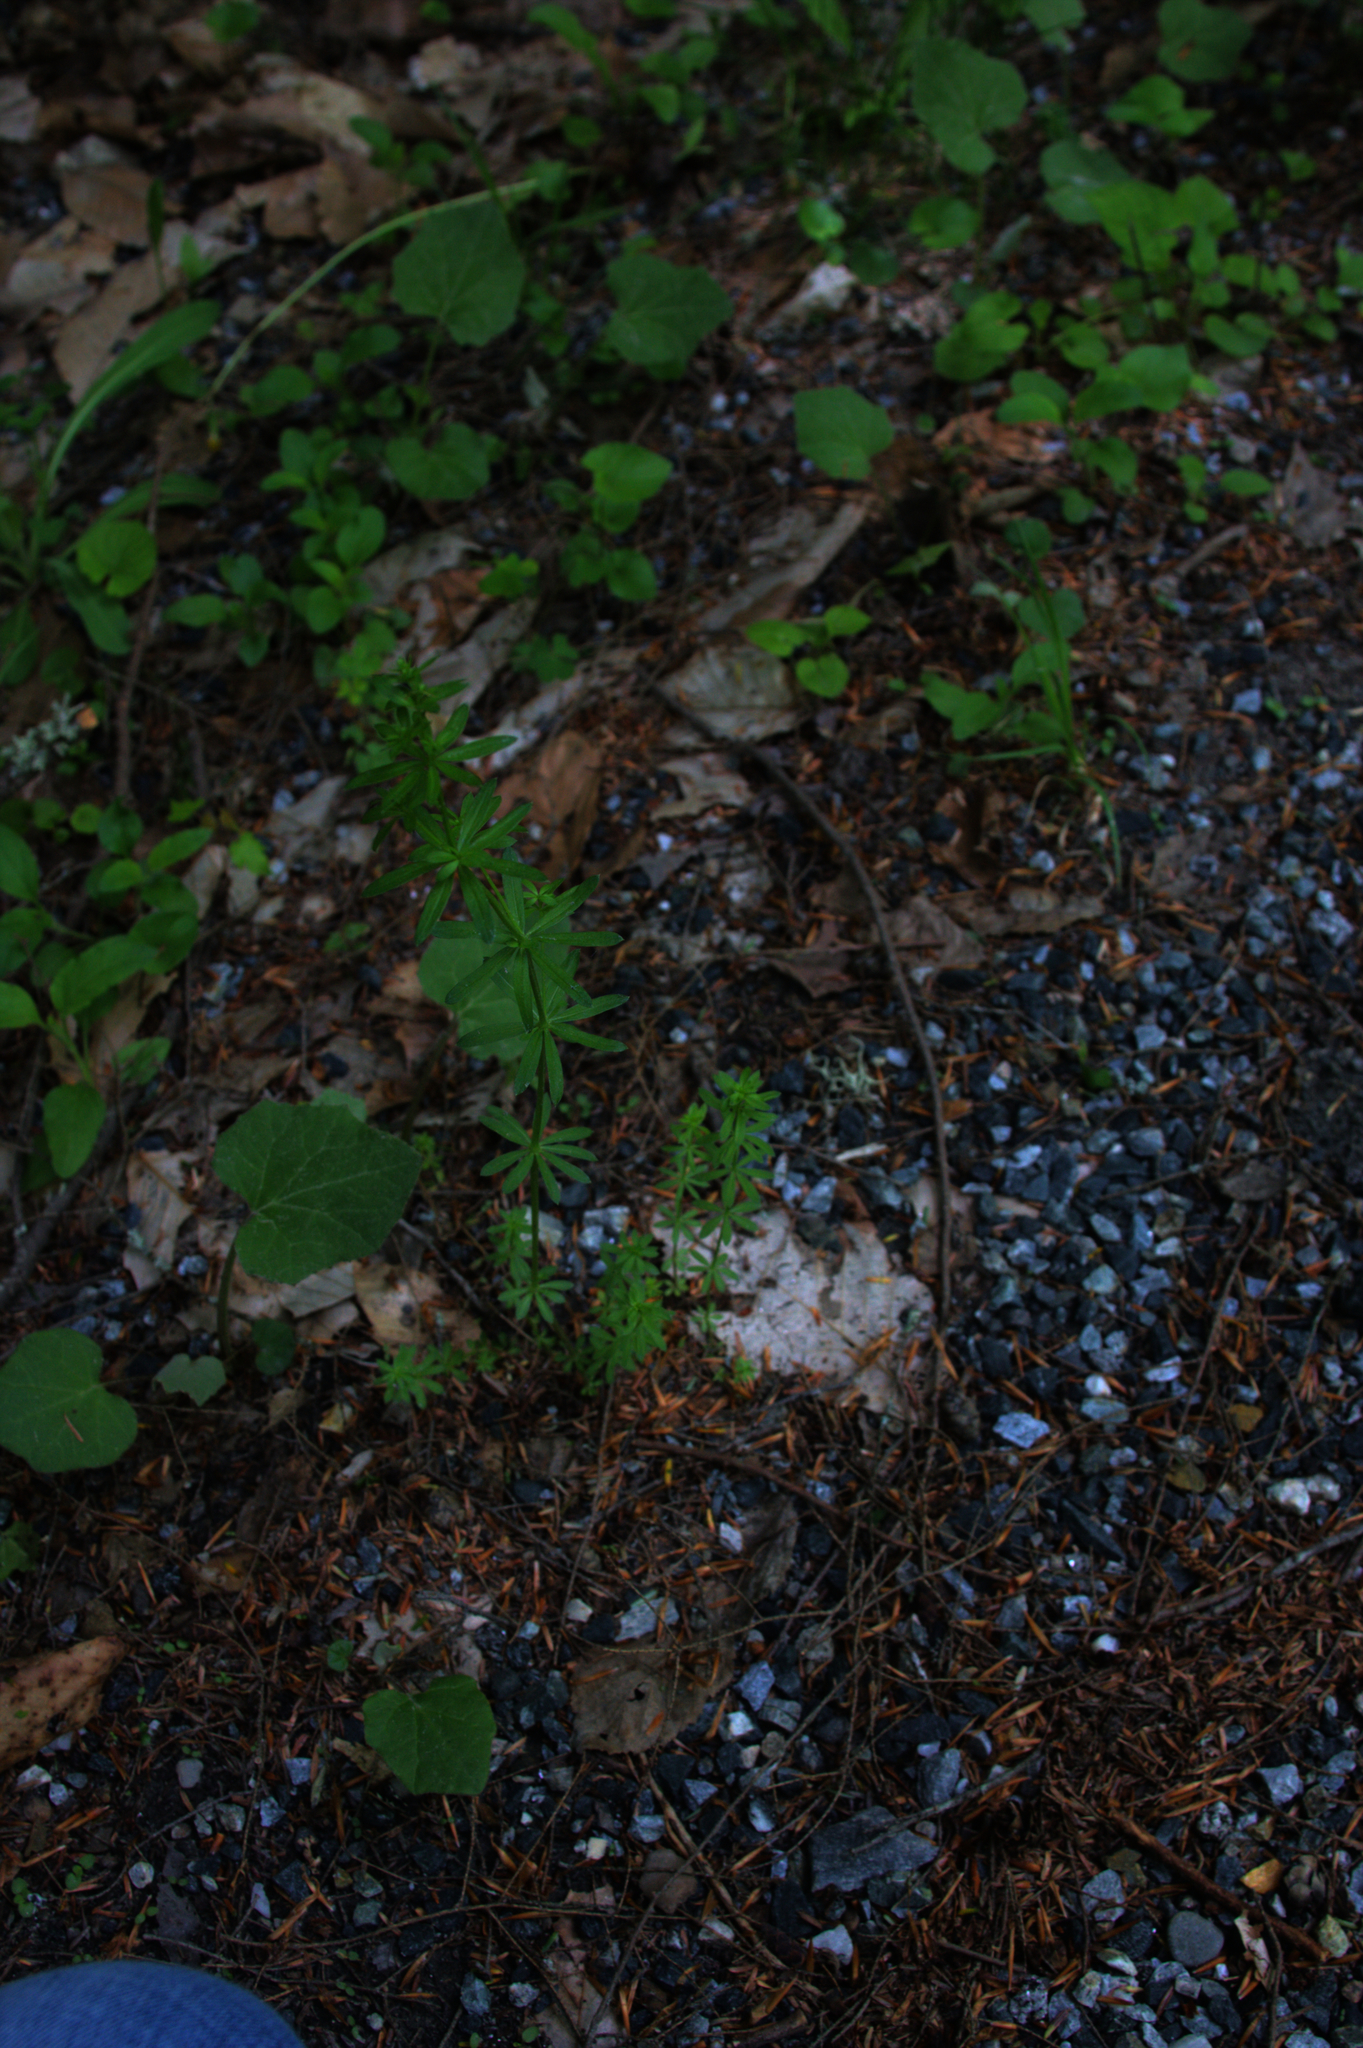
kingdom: Plantae
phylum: Tracheophyta
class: Magnoliopsida
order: Asterales
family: Asteraceae
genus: Tussilago
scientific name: Tussilago farfara
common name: Coltsfoot
